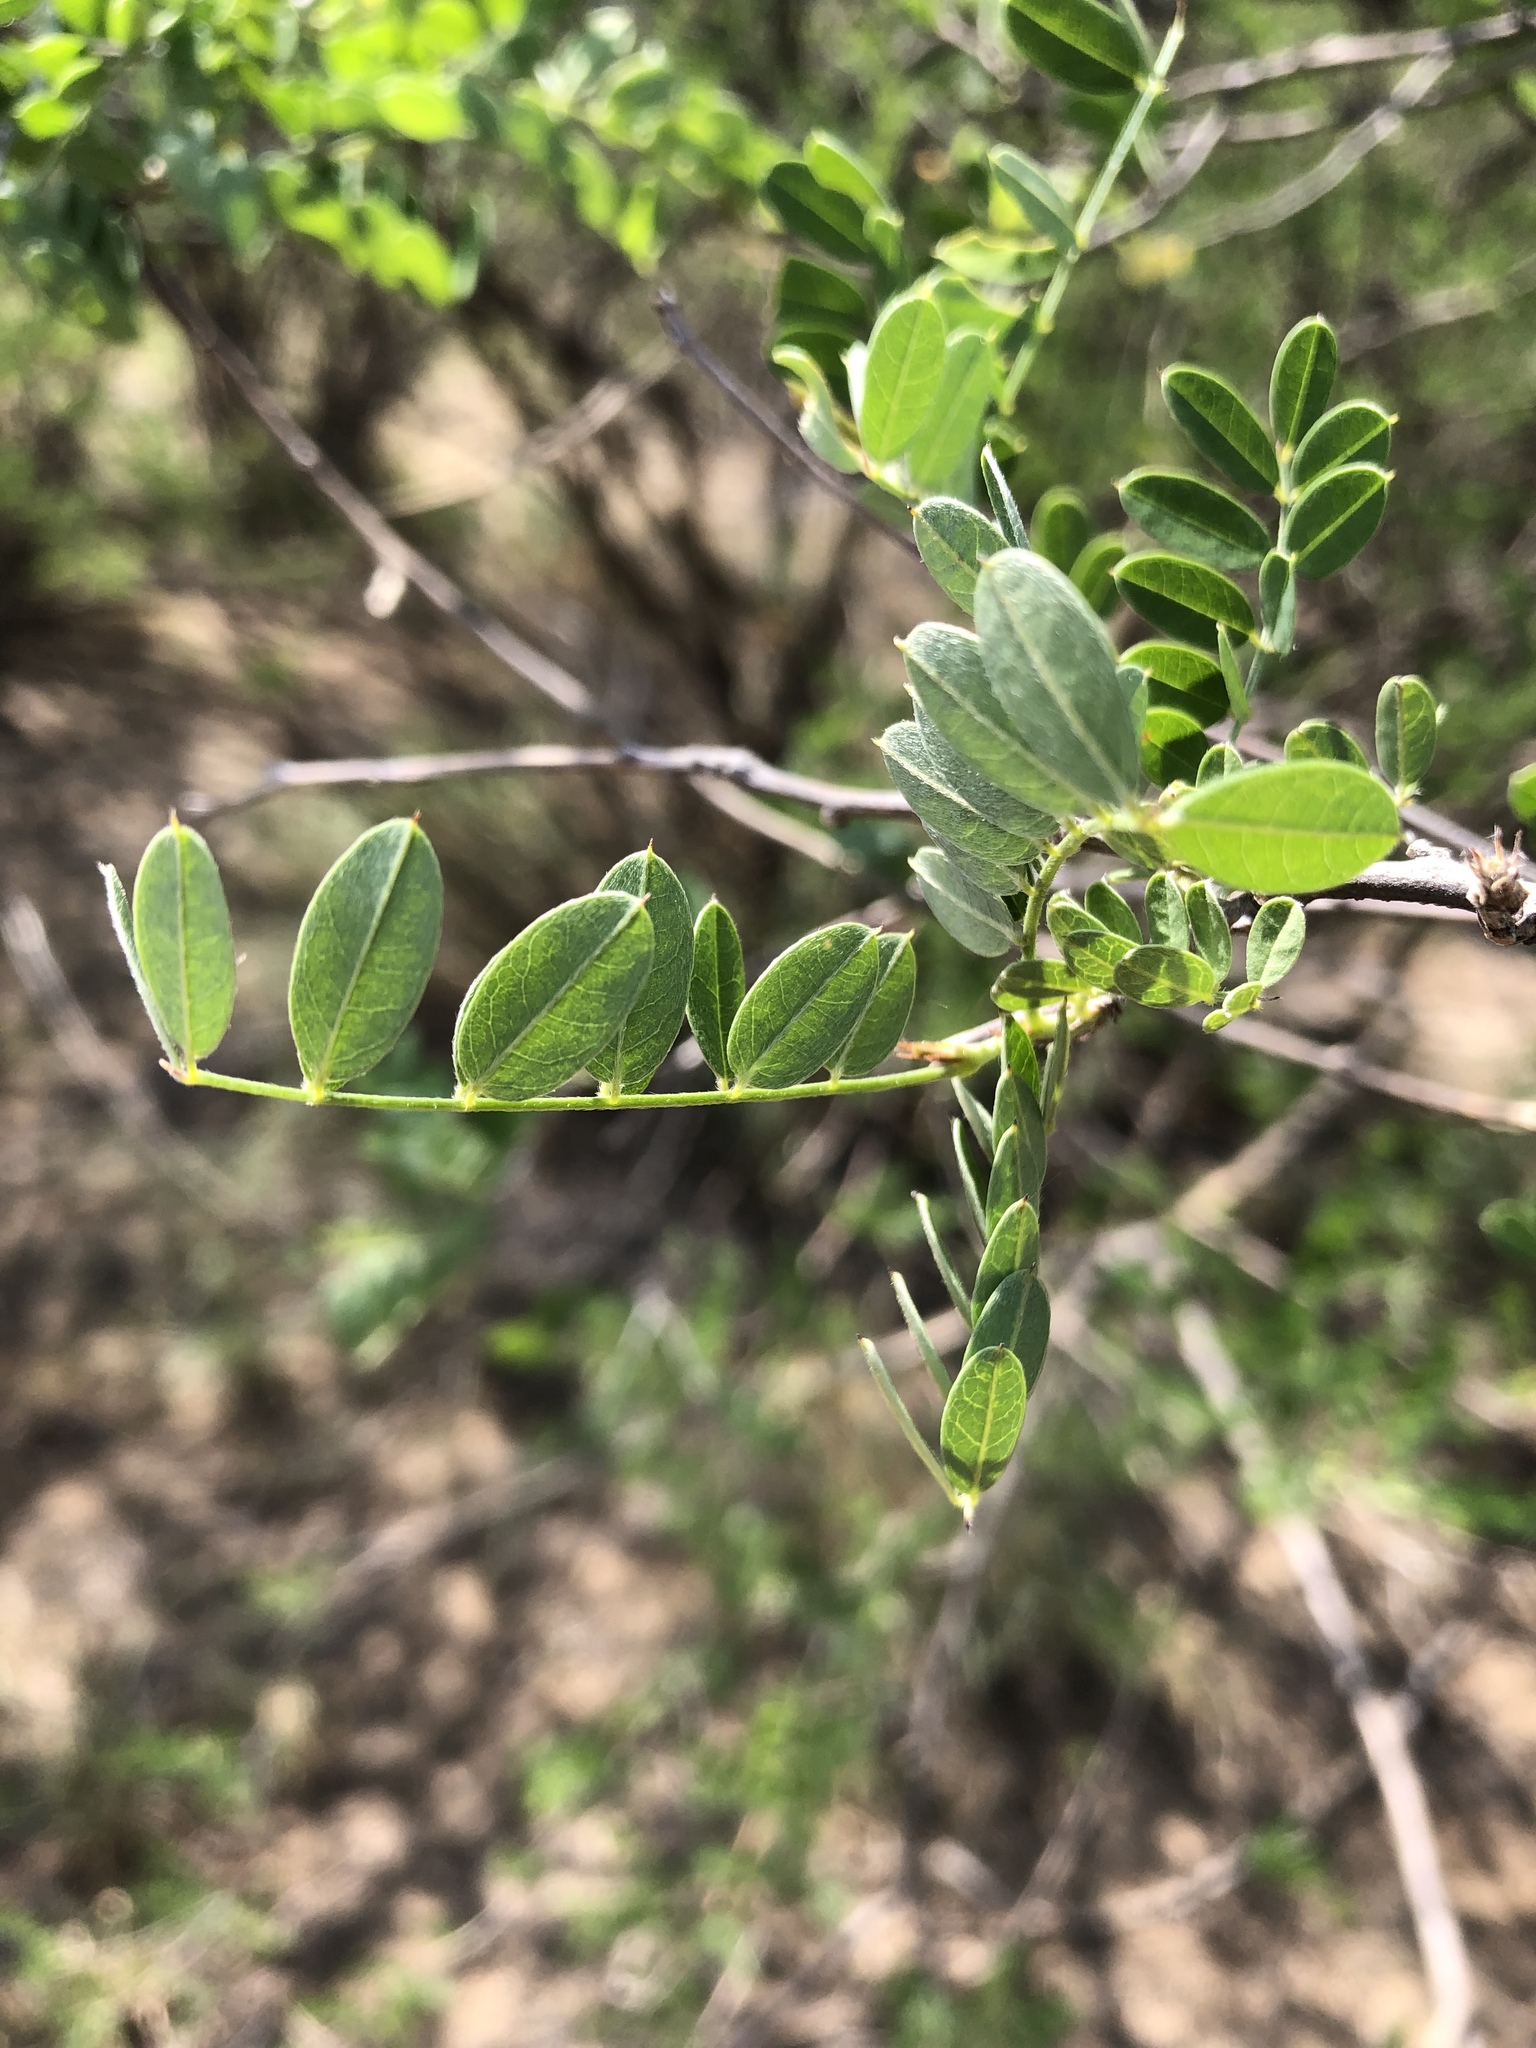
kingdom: Plantae
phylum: Tracheophyta
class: Magnoliopsida
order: Fabales
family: Fabaceae
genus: Coursetia
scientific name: Coursetia glandulosa
